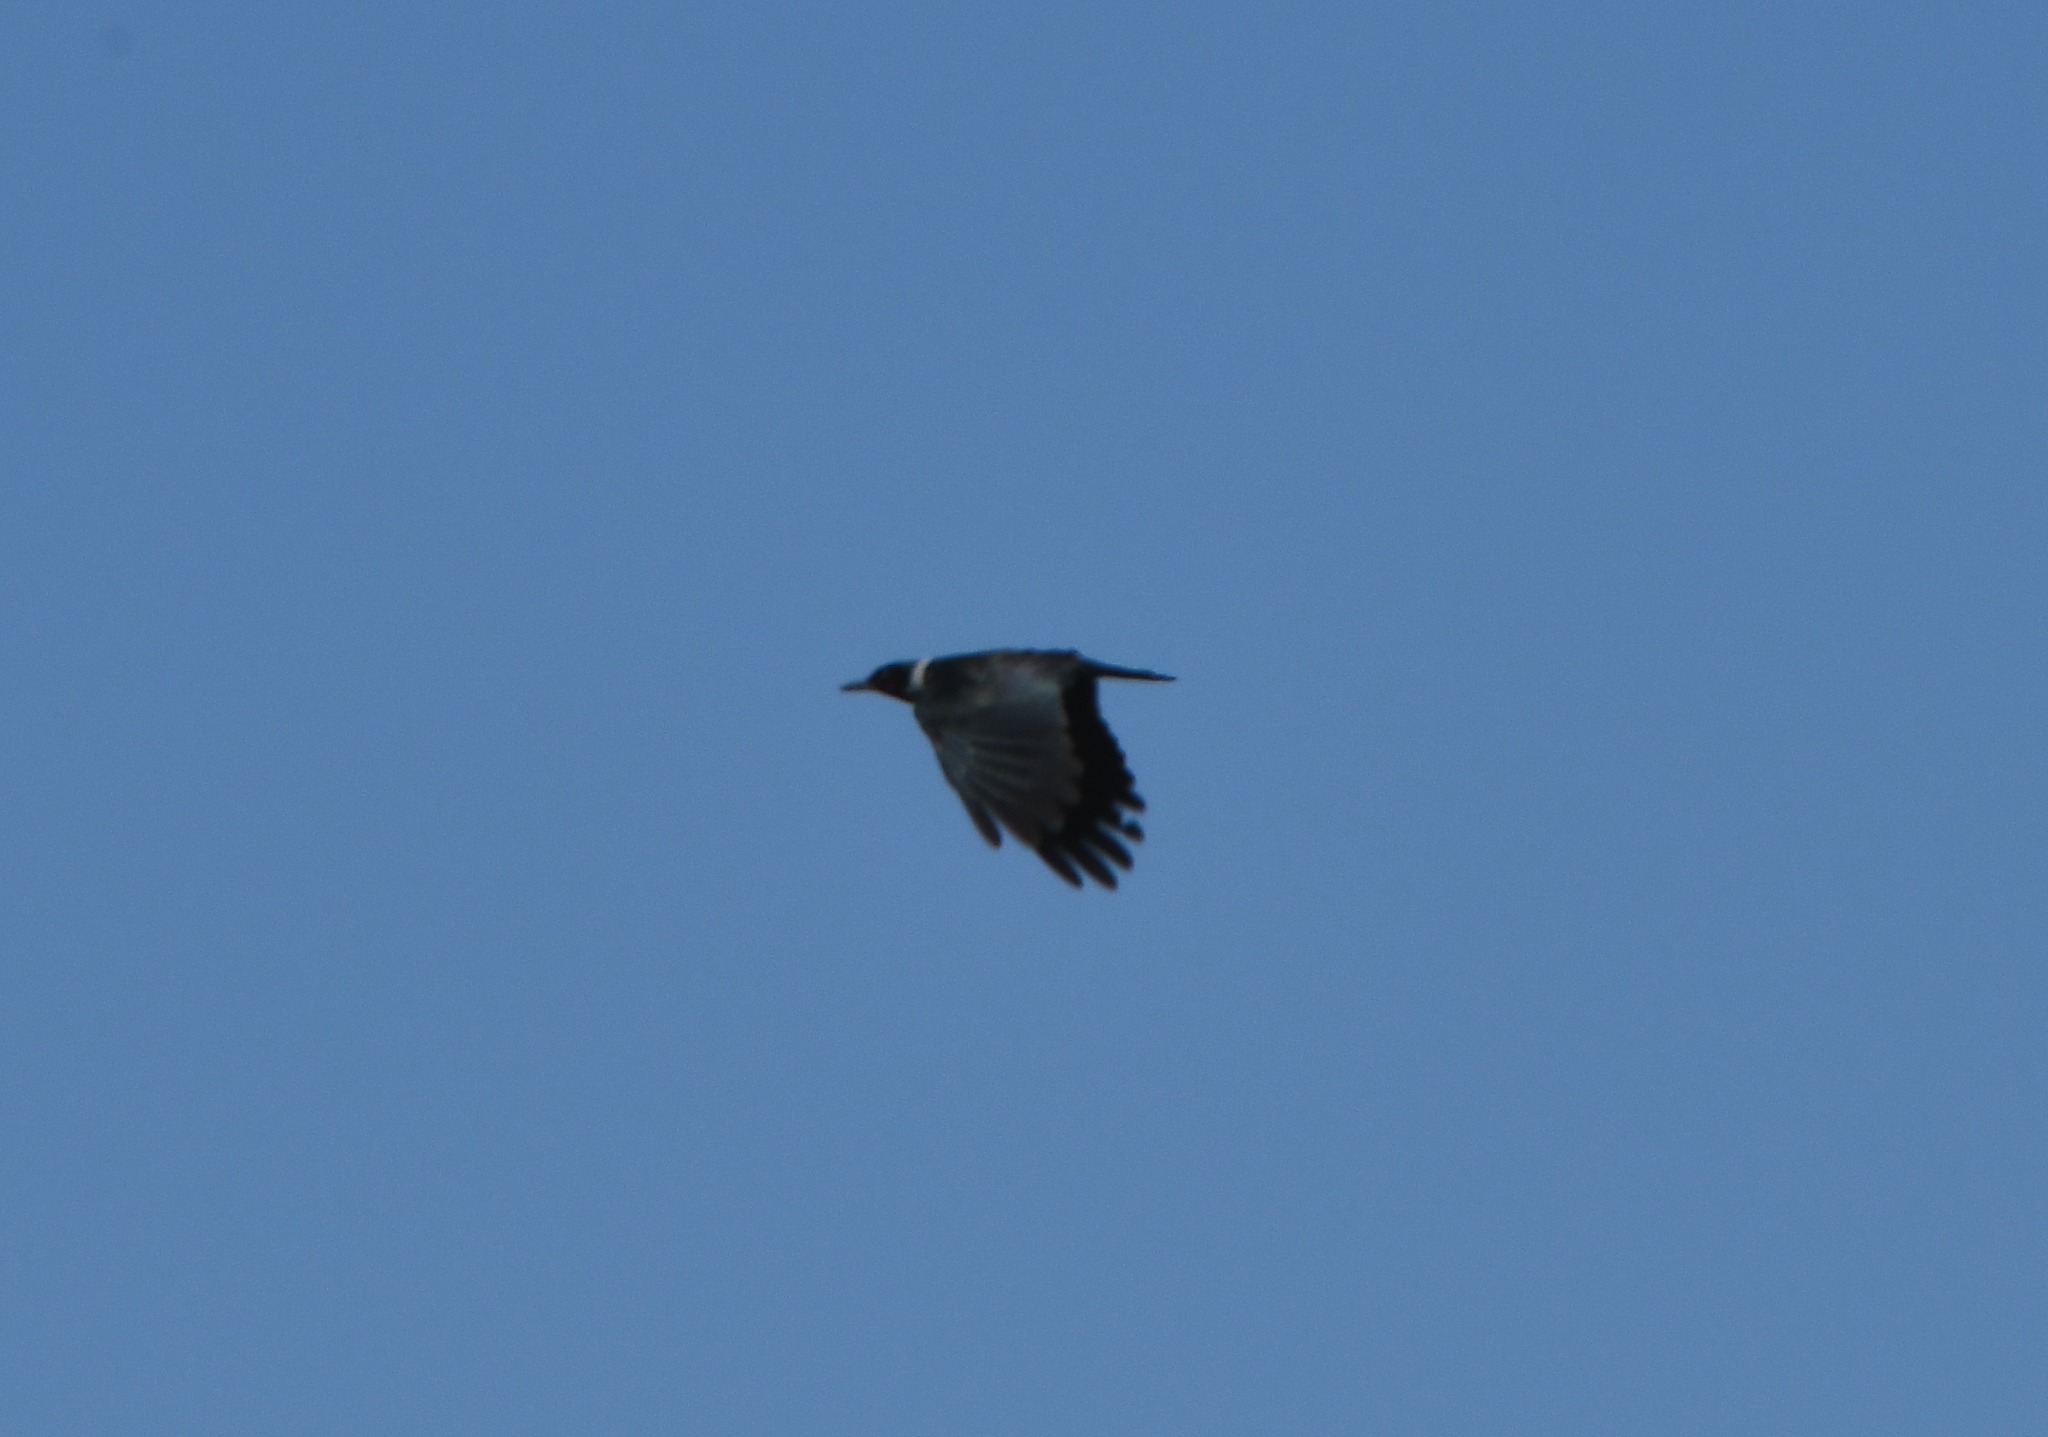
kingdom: Animalia
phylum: Chordata
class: Aves
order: Piciformes
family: Picidae
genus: Melanerpes
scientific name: Melanerpes lewis
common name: Lewis's woodpecker
